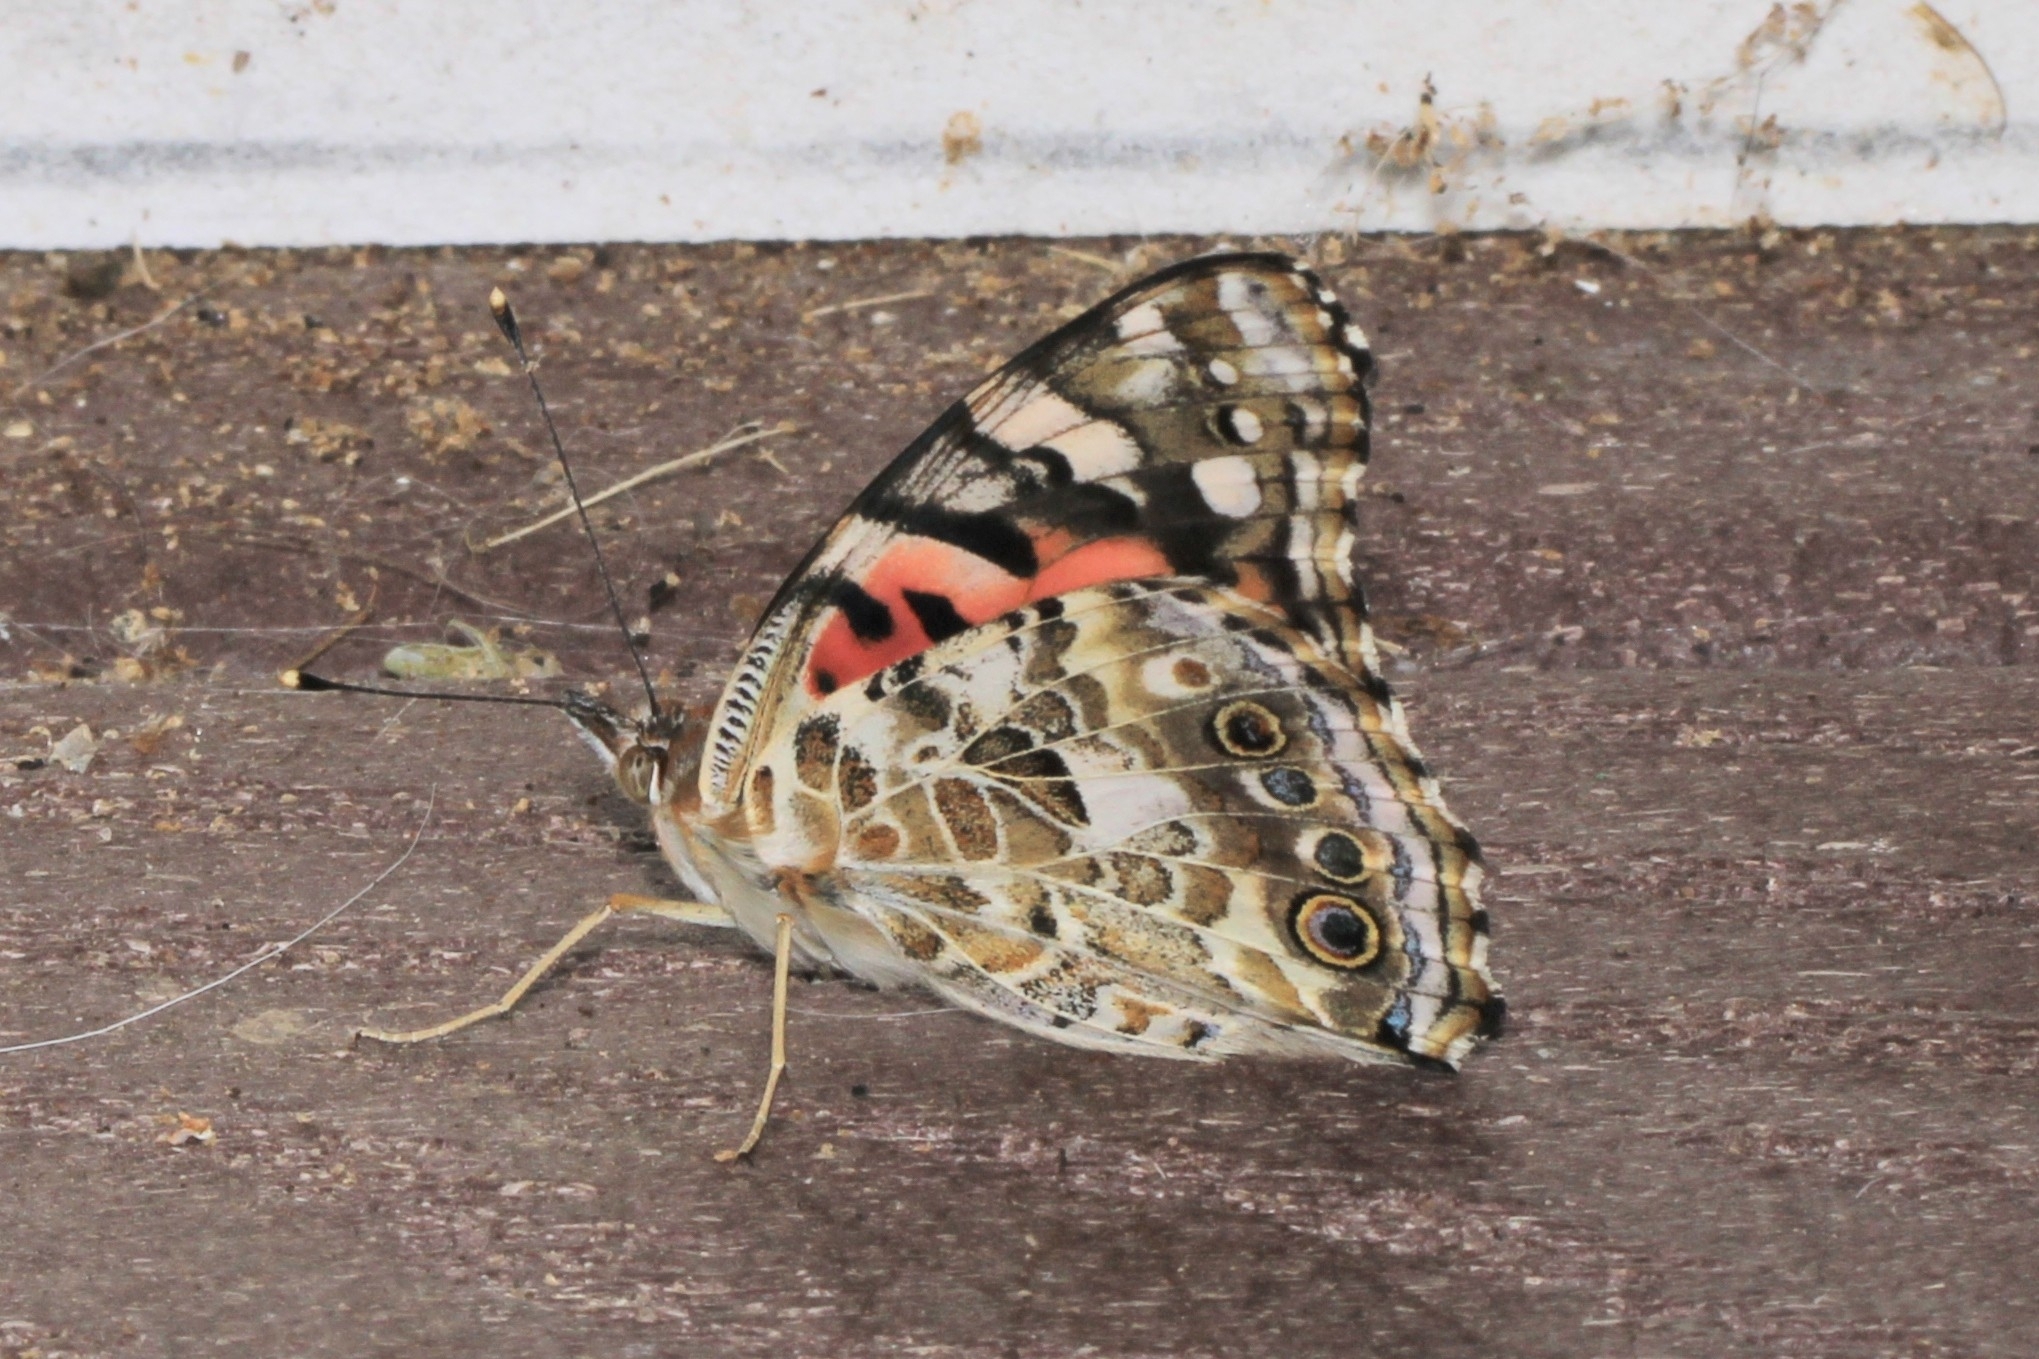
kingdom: Animalia
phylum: Arthropoda
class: Insecta
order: Lepidoptera
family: Nymphalidae
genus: Vanessa
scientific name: Vanessa cardui
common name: Painted lady
